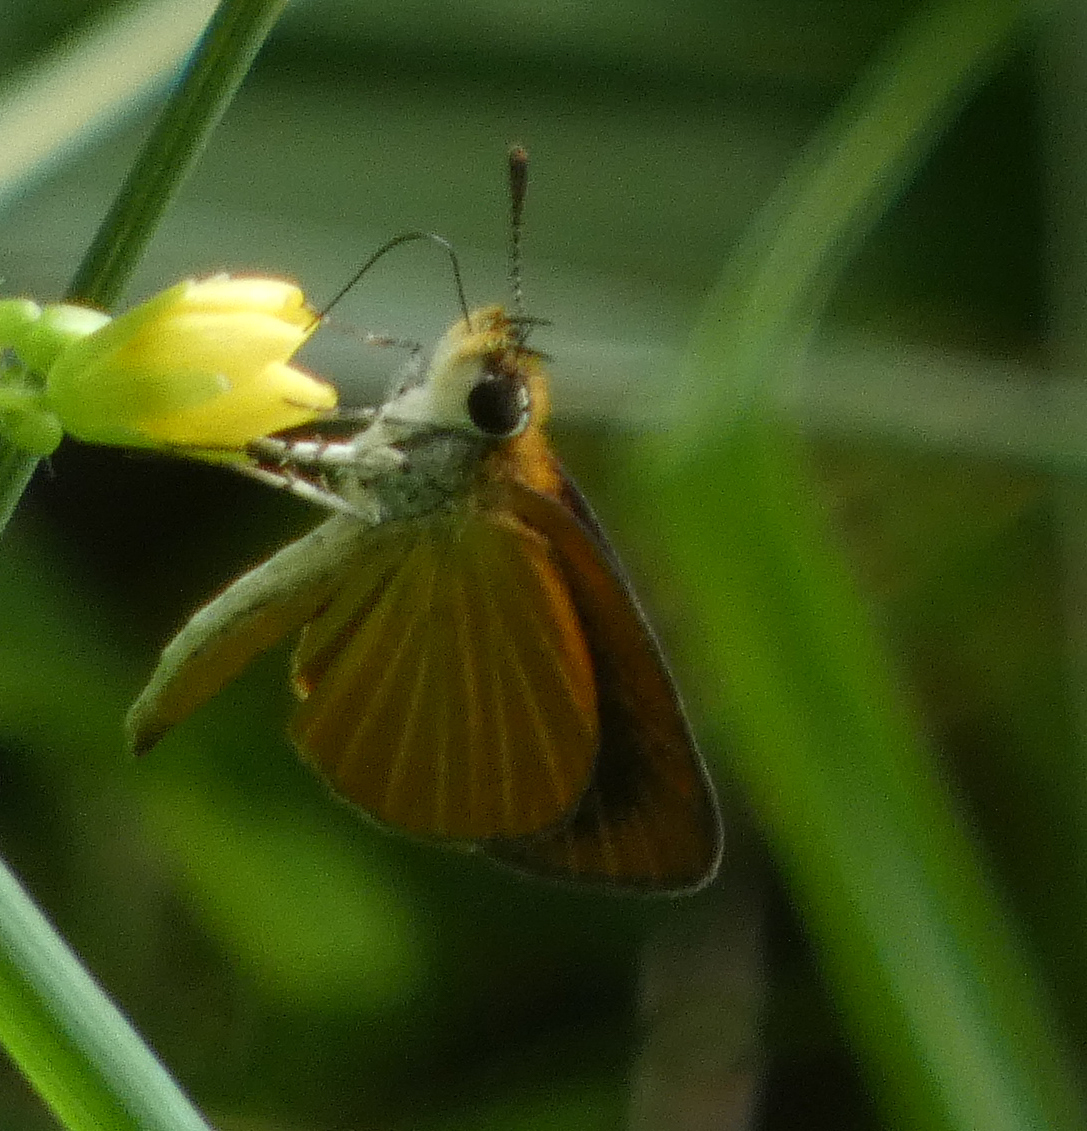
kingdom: Animalia
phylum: Arthropoda
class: Insecta
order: Lepidoptera
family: Hesperiidae
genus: Ancyloxypha
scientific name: Ancyloxypha numitor
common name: Least skipper
